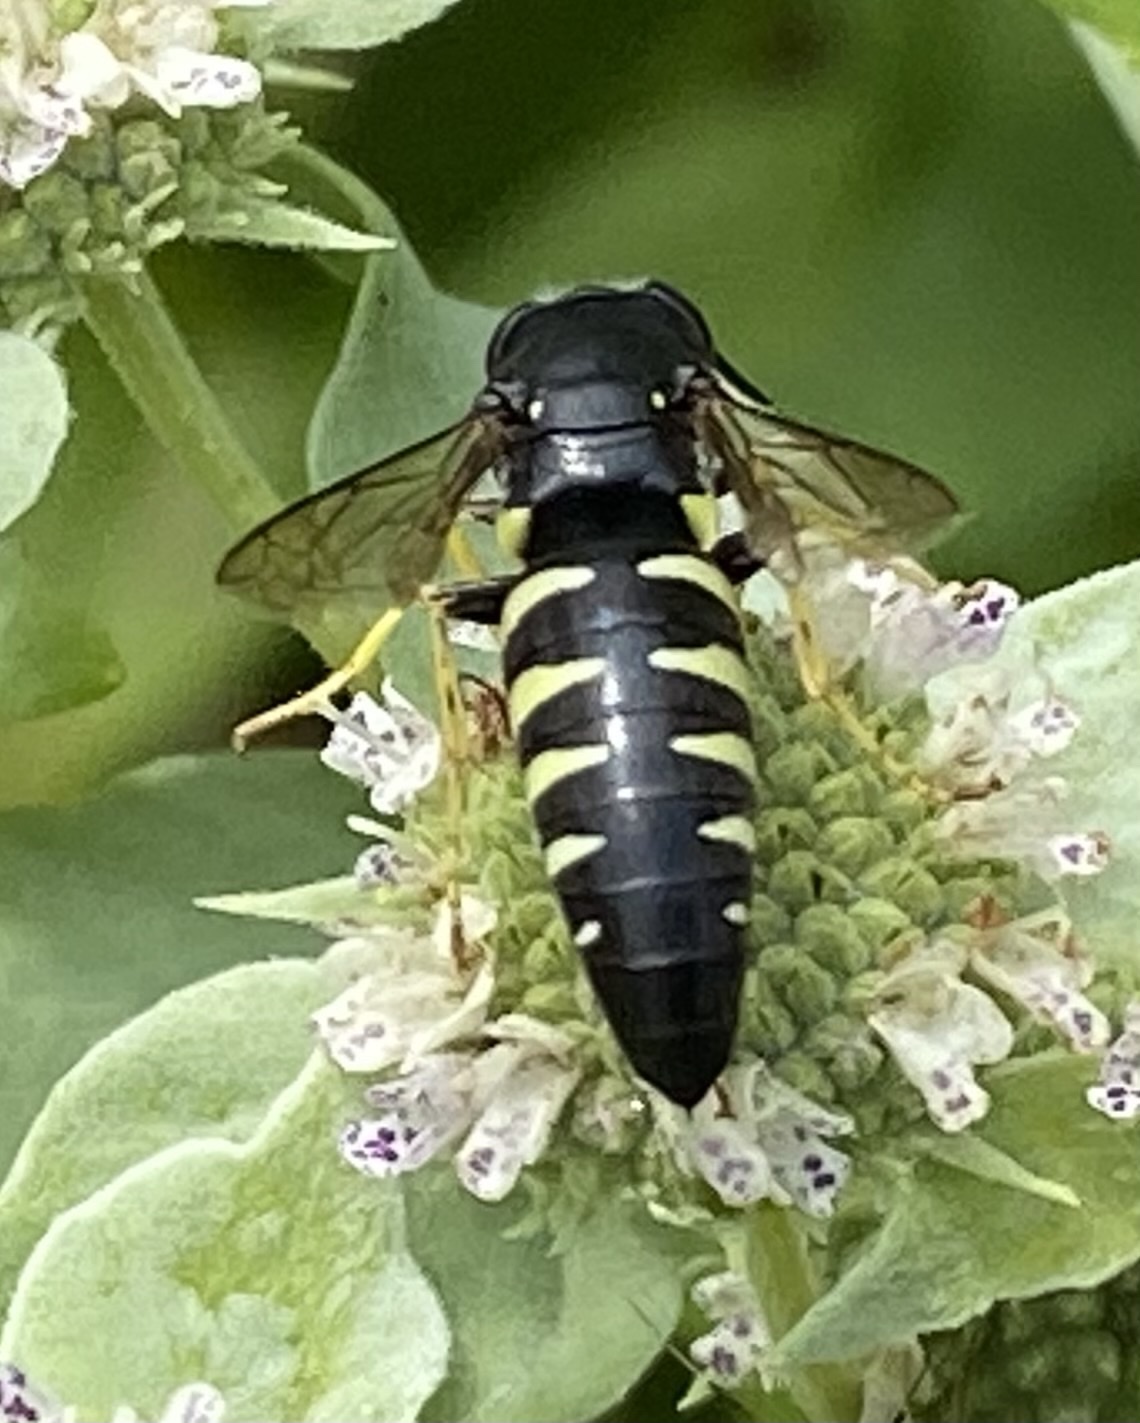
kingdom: Animalia
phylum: Arthropoda
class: Insecta
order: Hymenoptera
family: Crabronidae
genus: Bicyrtes
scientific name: Bicyrtes quadrifasciatus
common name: Four-banded stink bug hunter wasp
